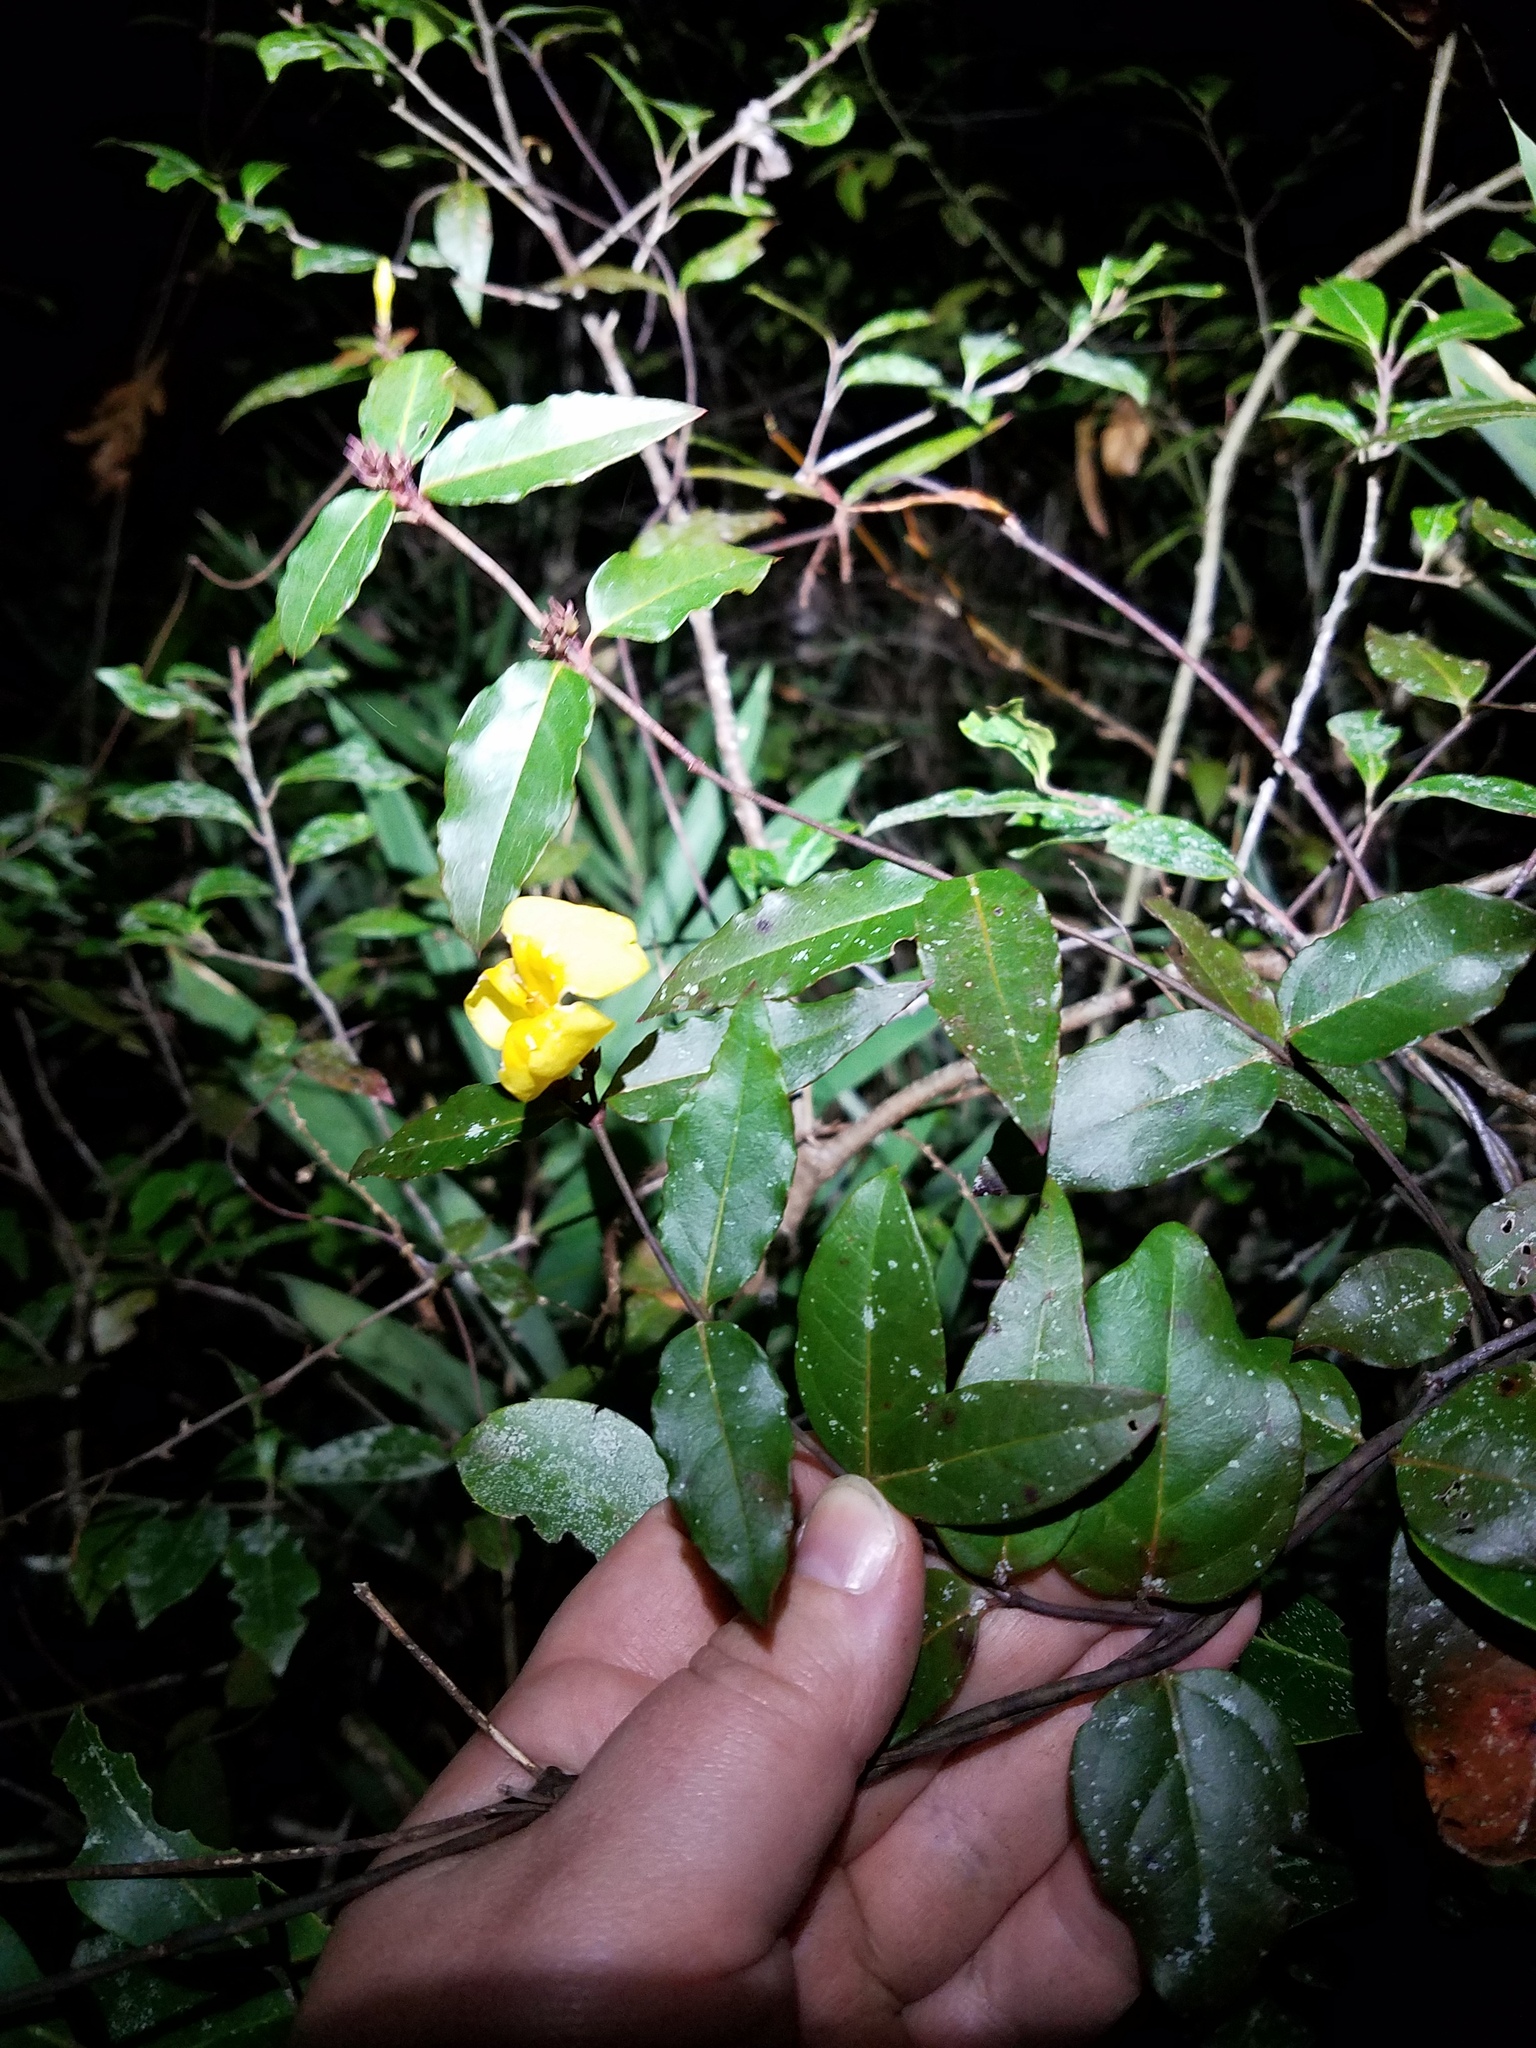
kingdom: Plantae
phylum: Tracheophyta
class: Magnoliopsida
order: Gentianales
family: Gelsemiaceae
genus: Gelsemium
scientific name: Gelsemium rankinii
